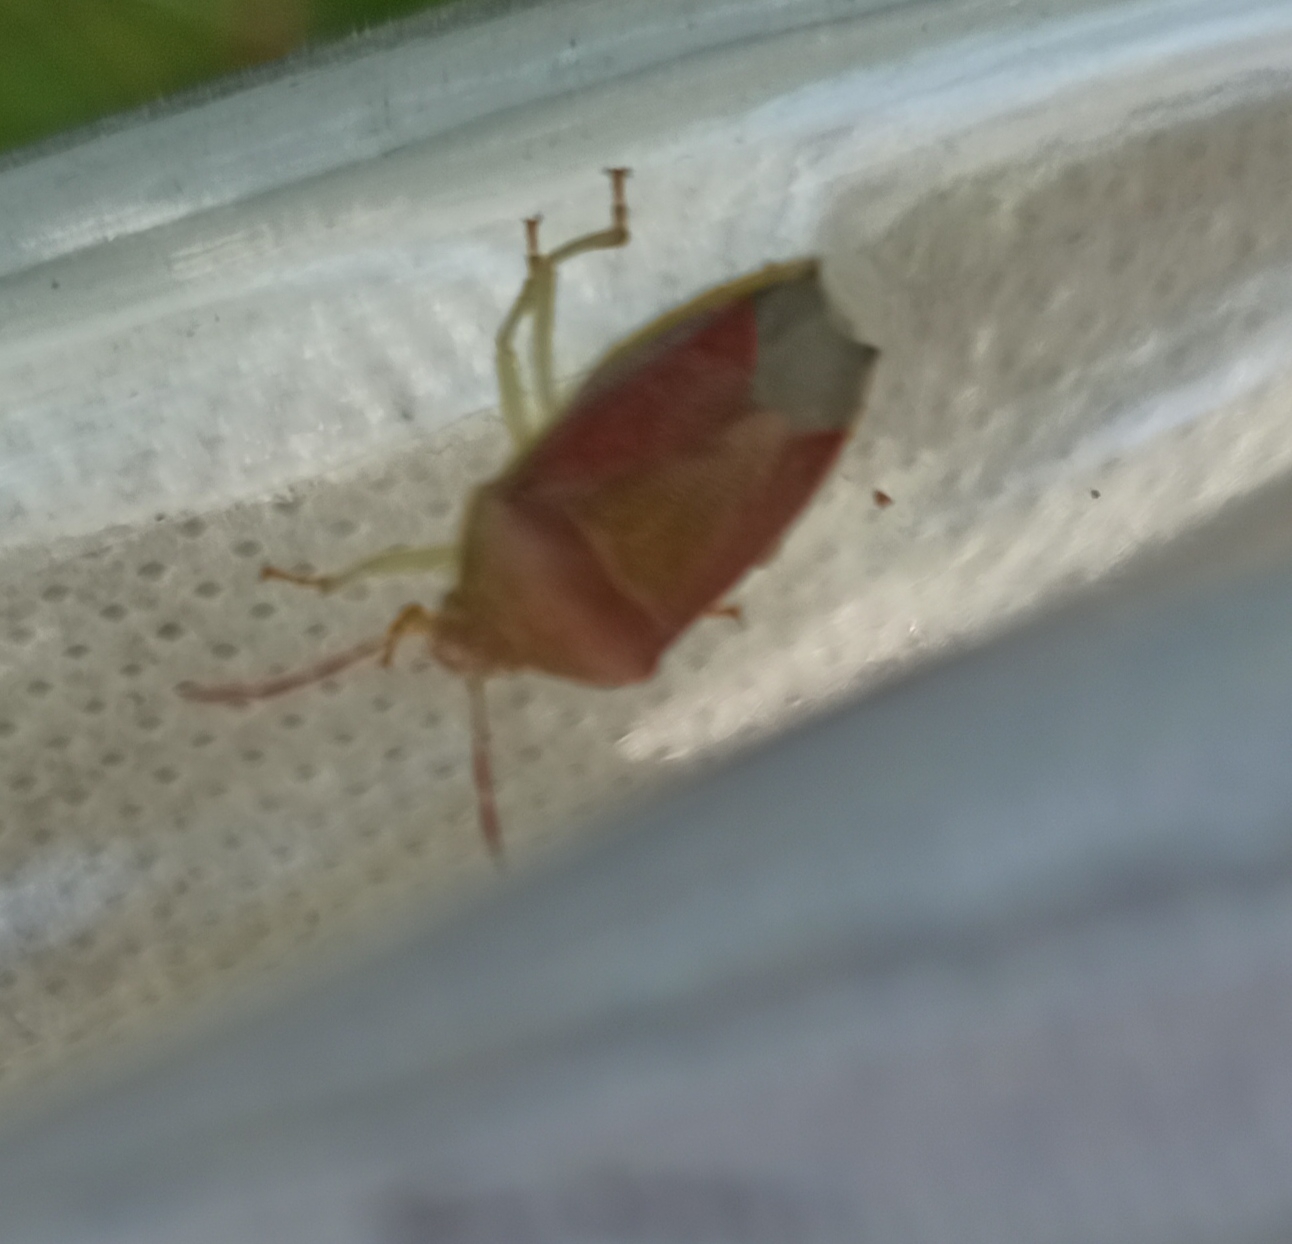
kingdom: Animalia
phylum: Arthropoda
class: Insecta
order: Hemiptera
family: Pentatomidae
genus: Piezodorus
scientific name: Piezodorus lituratus
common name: Stink bug
